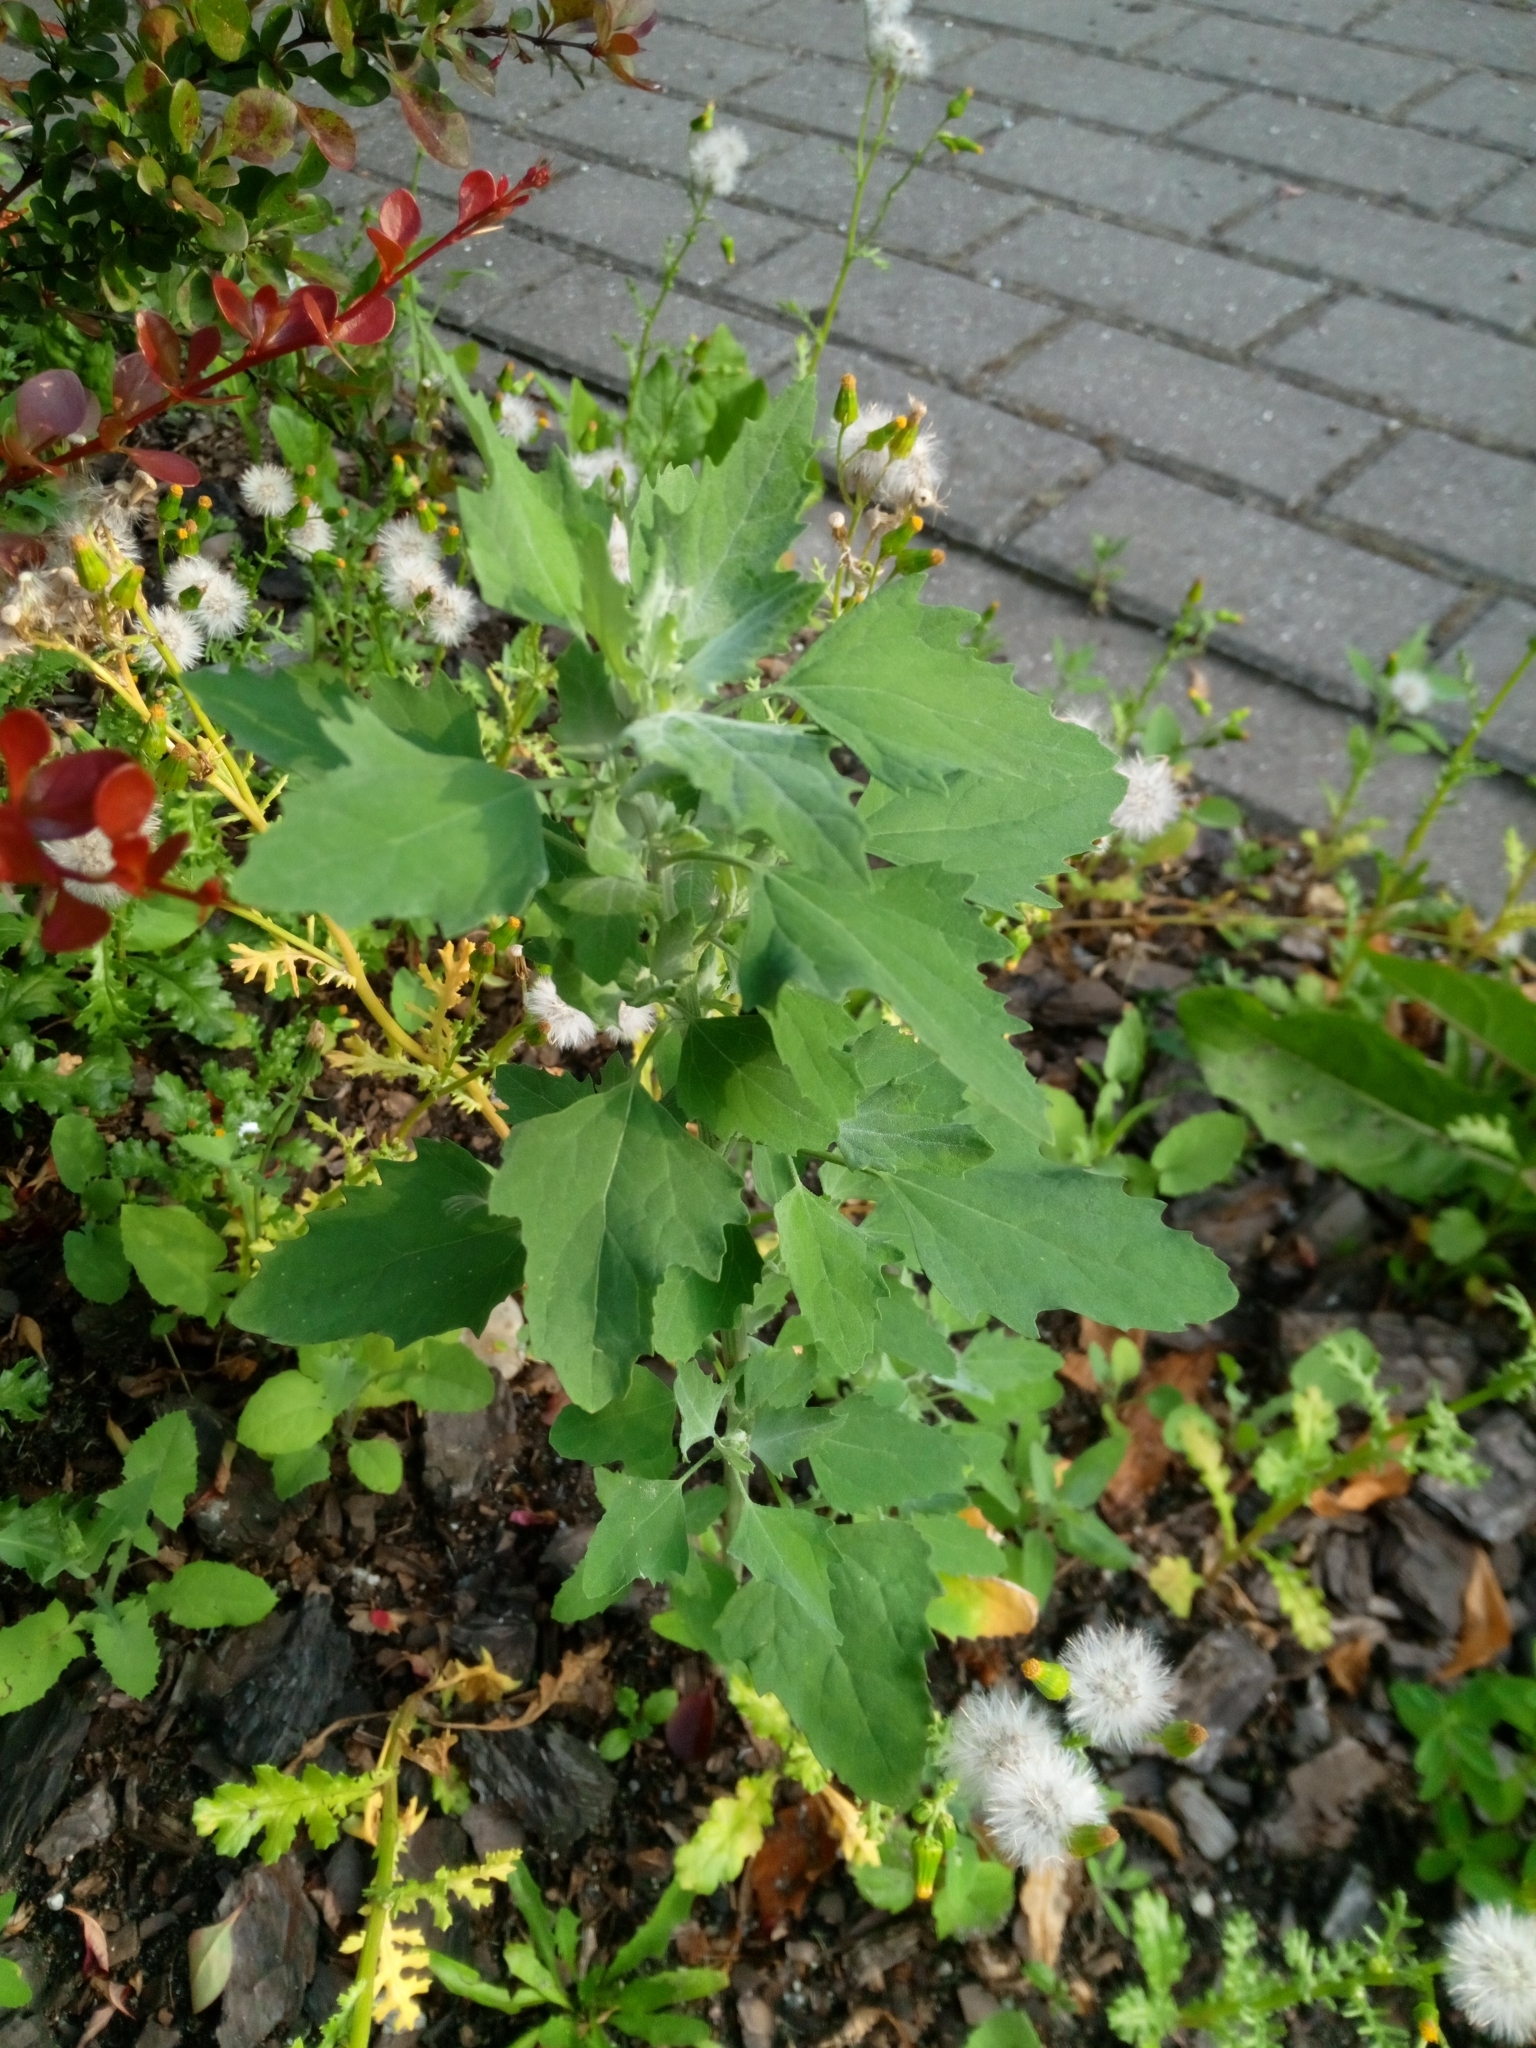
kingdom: Plantae
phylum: Tracheophyta
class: Magnoliopsida
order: Caryophyllales
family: Amaranthaceae
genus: Chenopodium
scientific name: Chenopodium album
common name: Fat-hen
